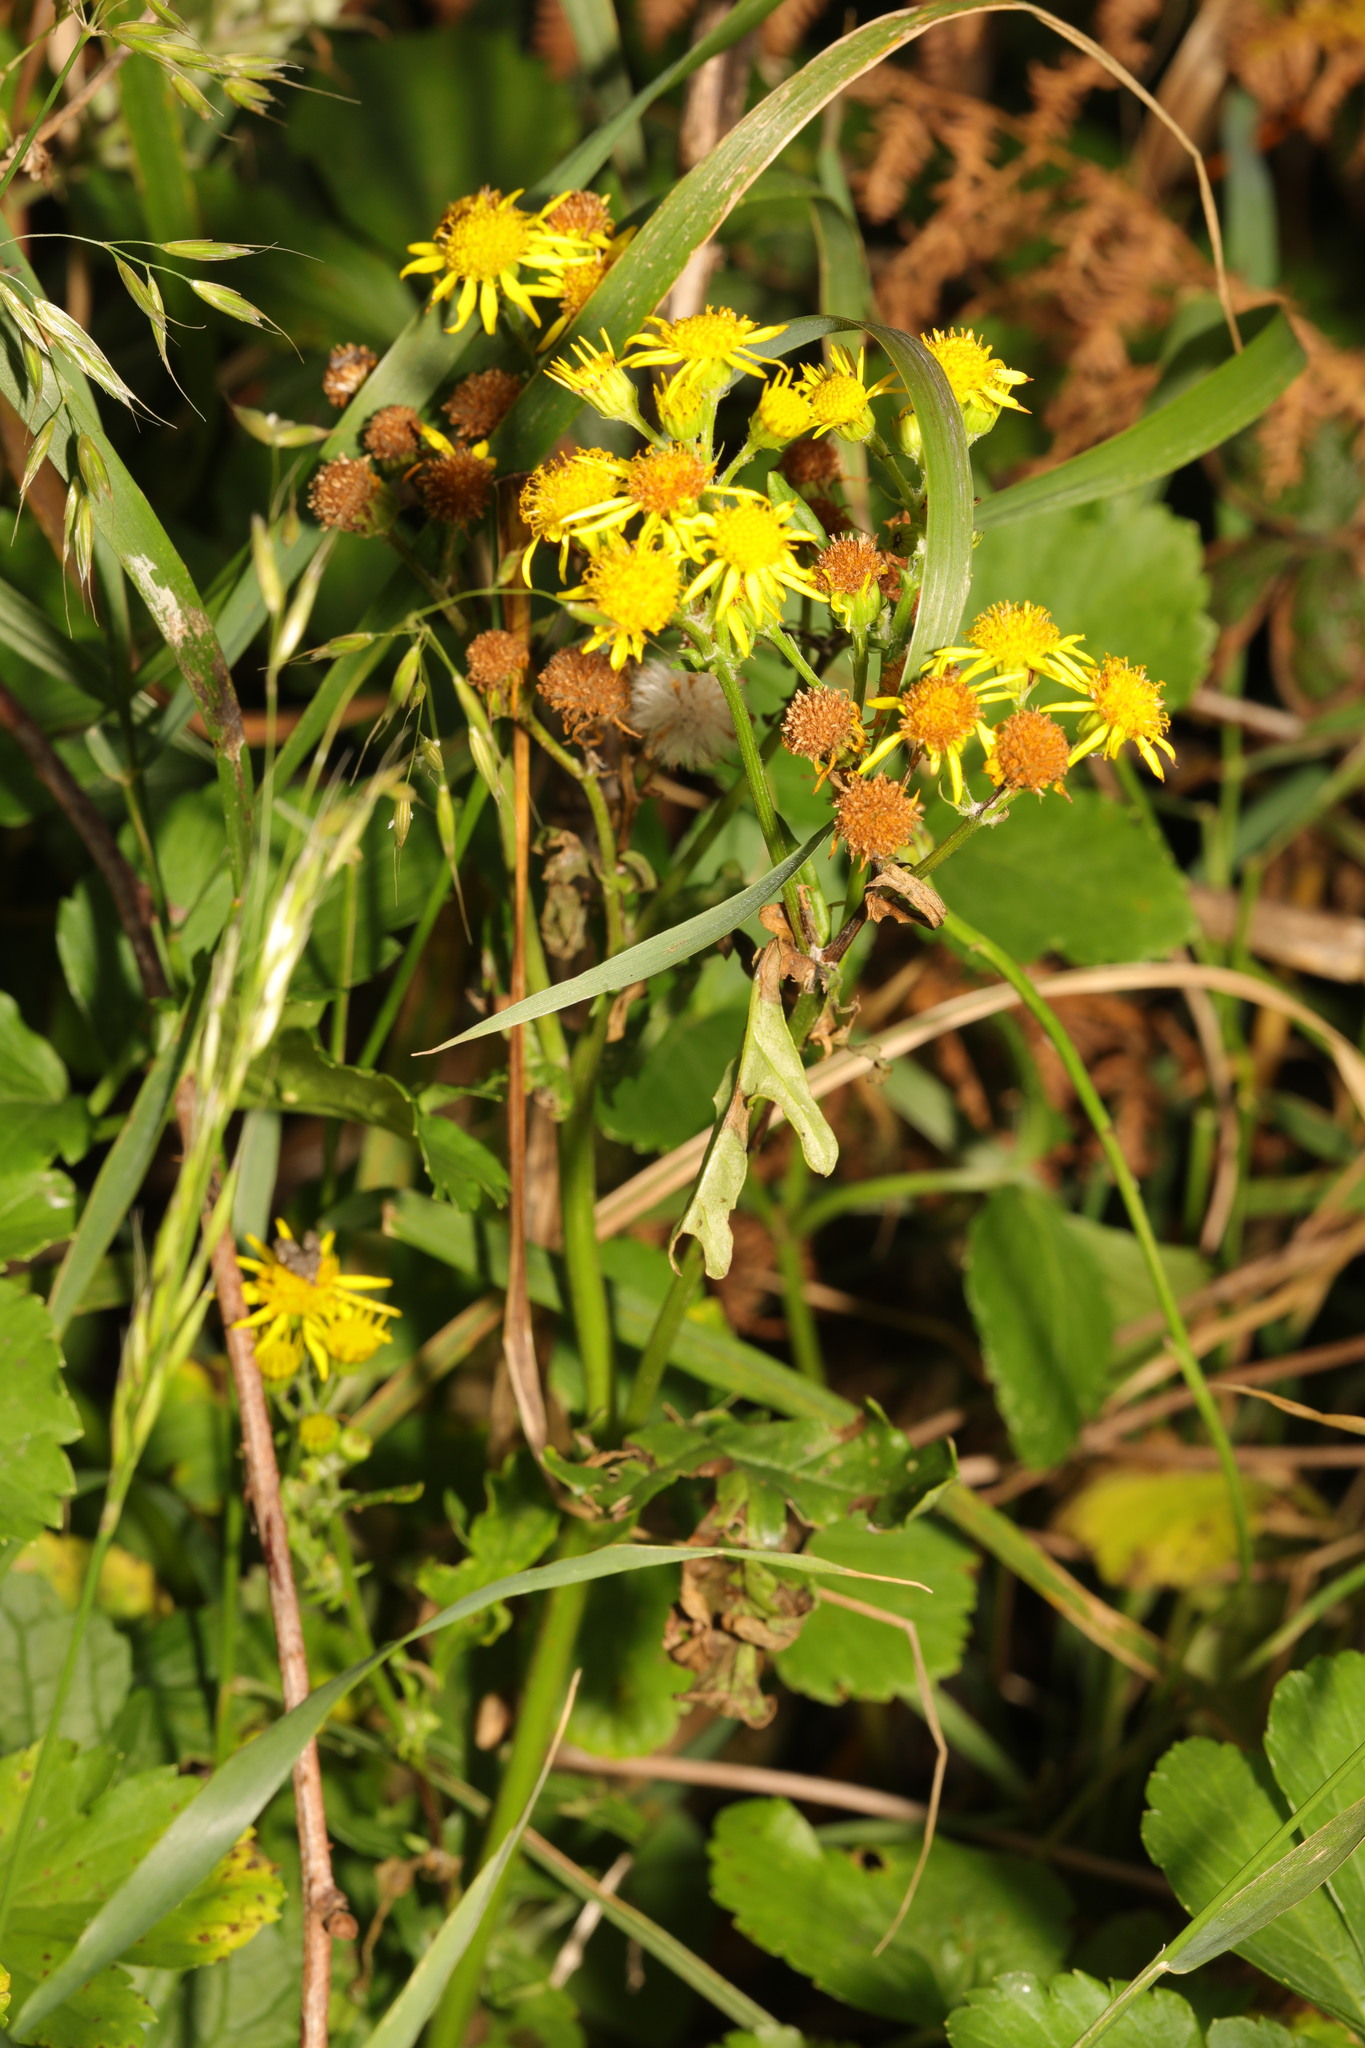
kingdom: Plantae
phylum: Tracheophyta
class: Magnoliopsida
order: Asterales
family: Asteraceae
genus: Jacobaea
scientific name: Jacobaea vulgaris
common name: Stinking willie
